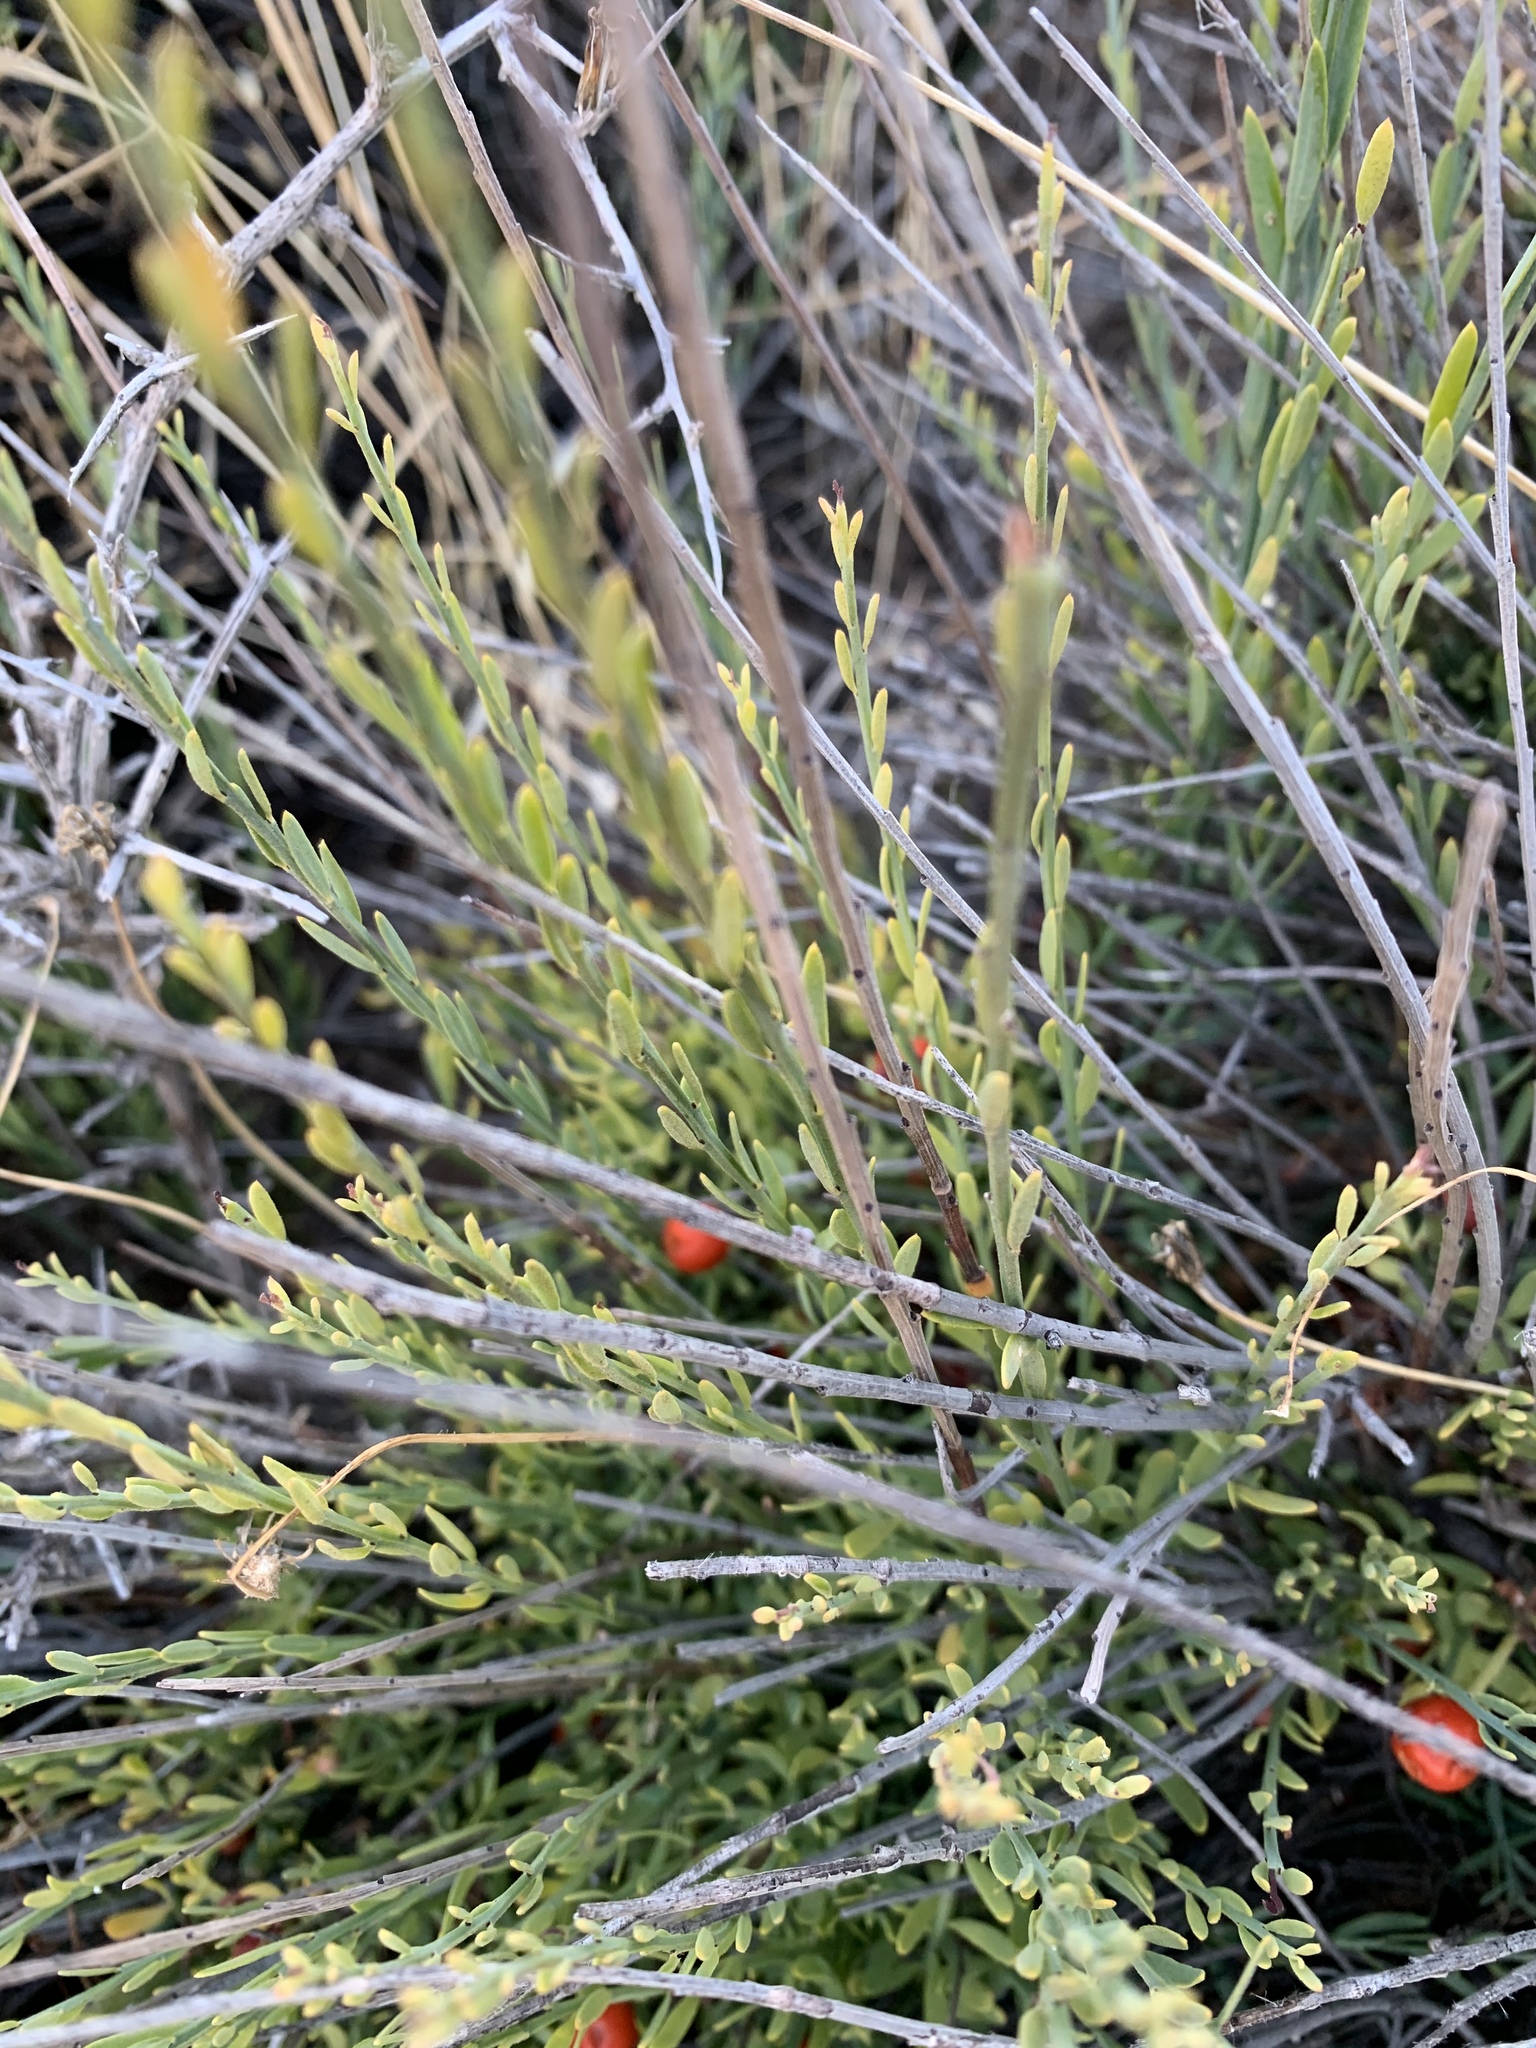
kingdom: Plantae
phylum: Tracheophyta
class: Magnoliopsida
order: Santalales
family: Santalaceae
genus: Osyris
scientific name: Osyris alba
